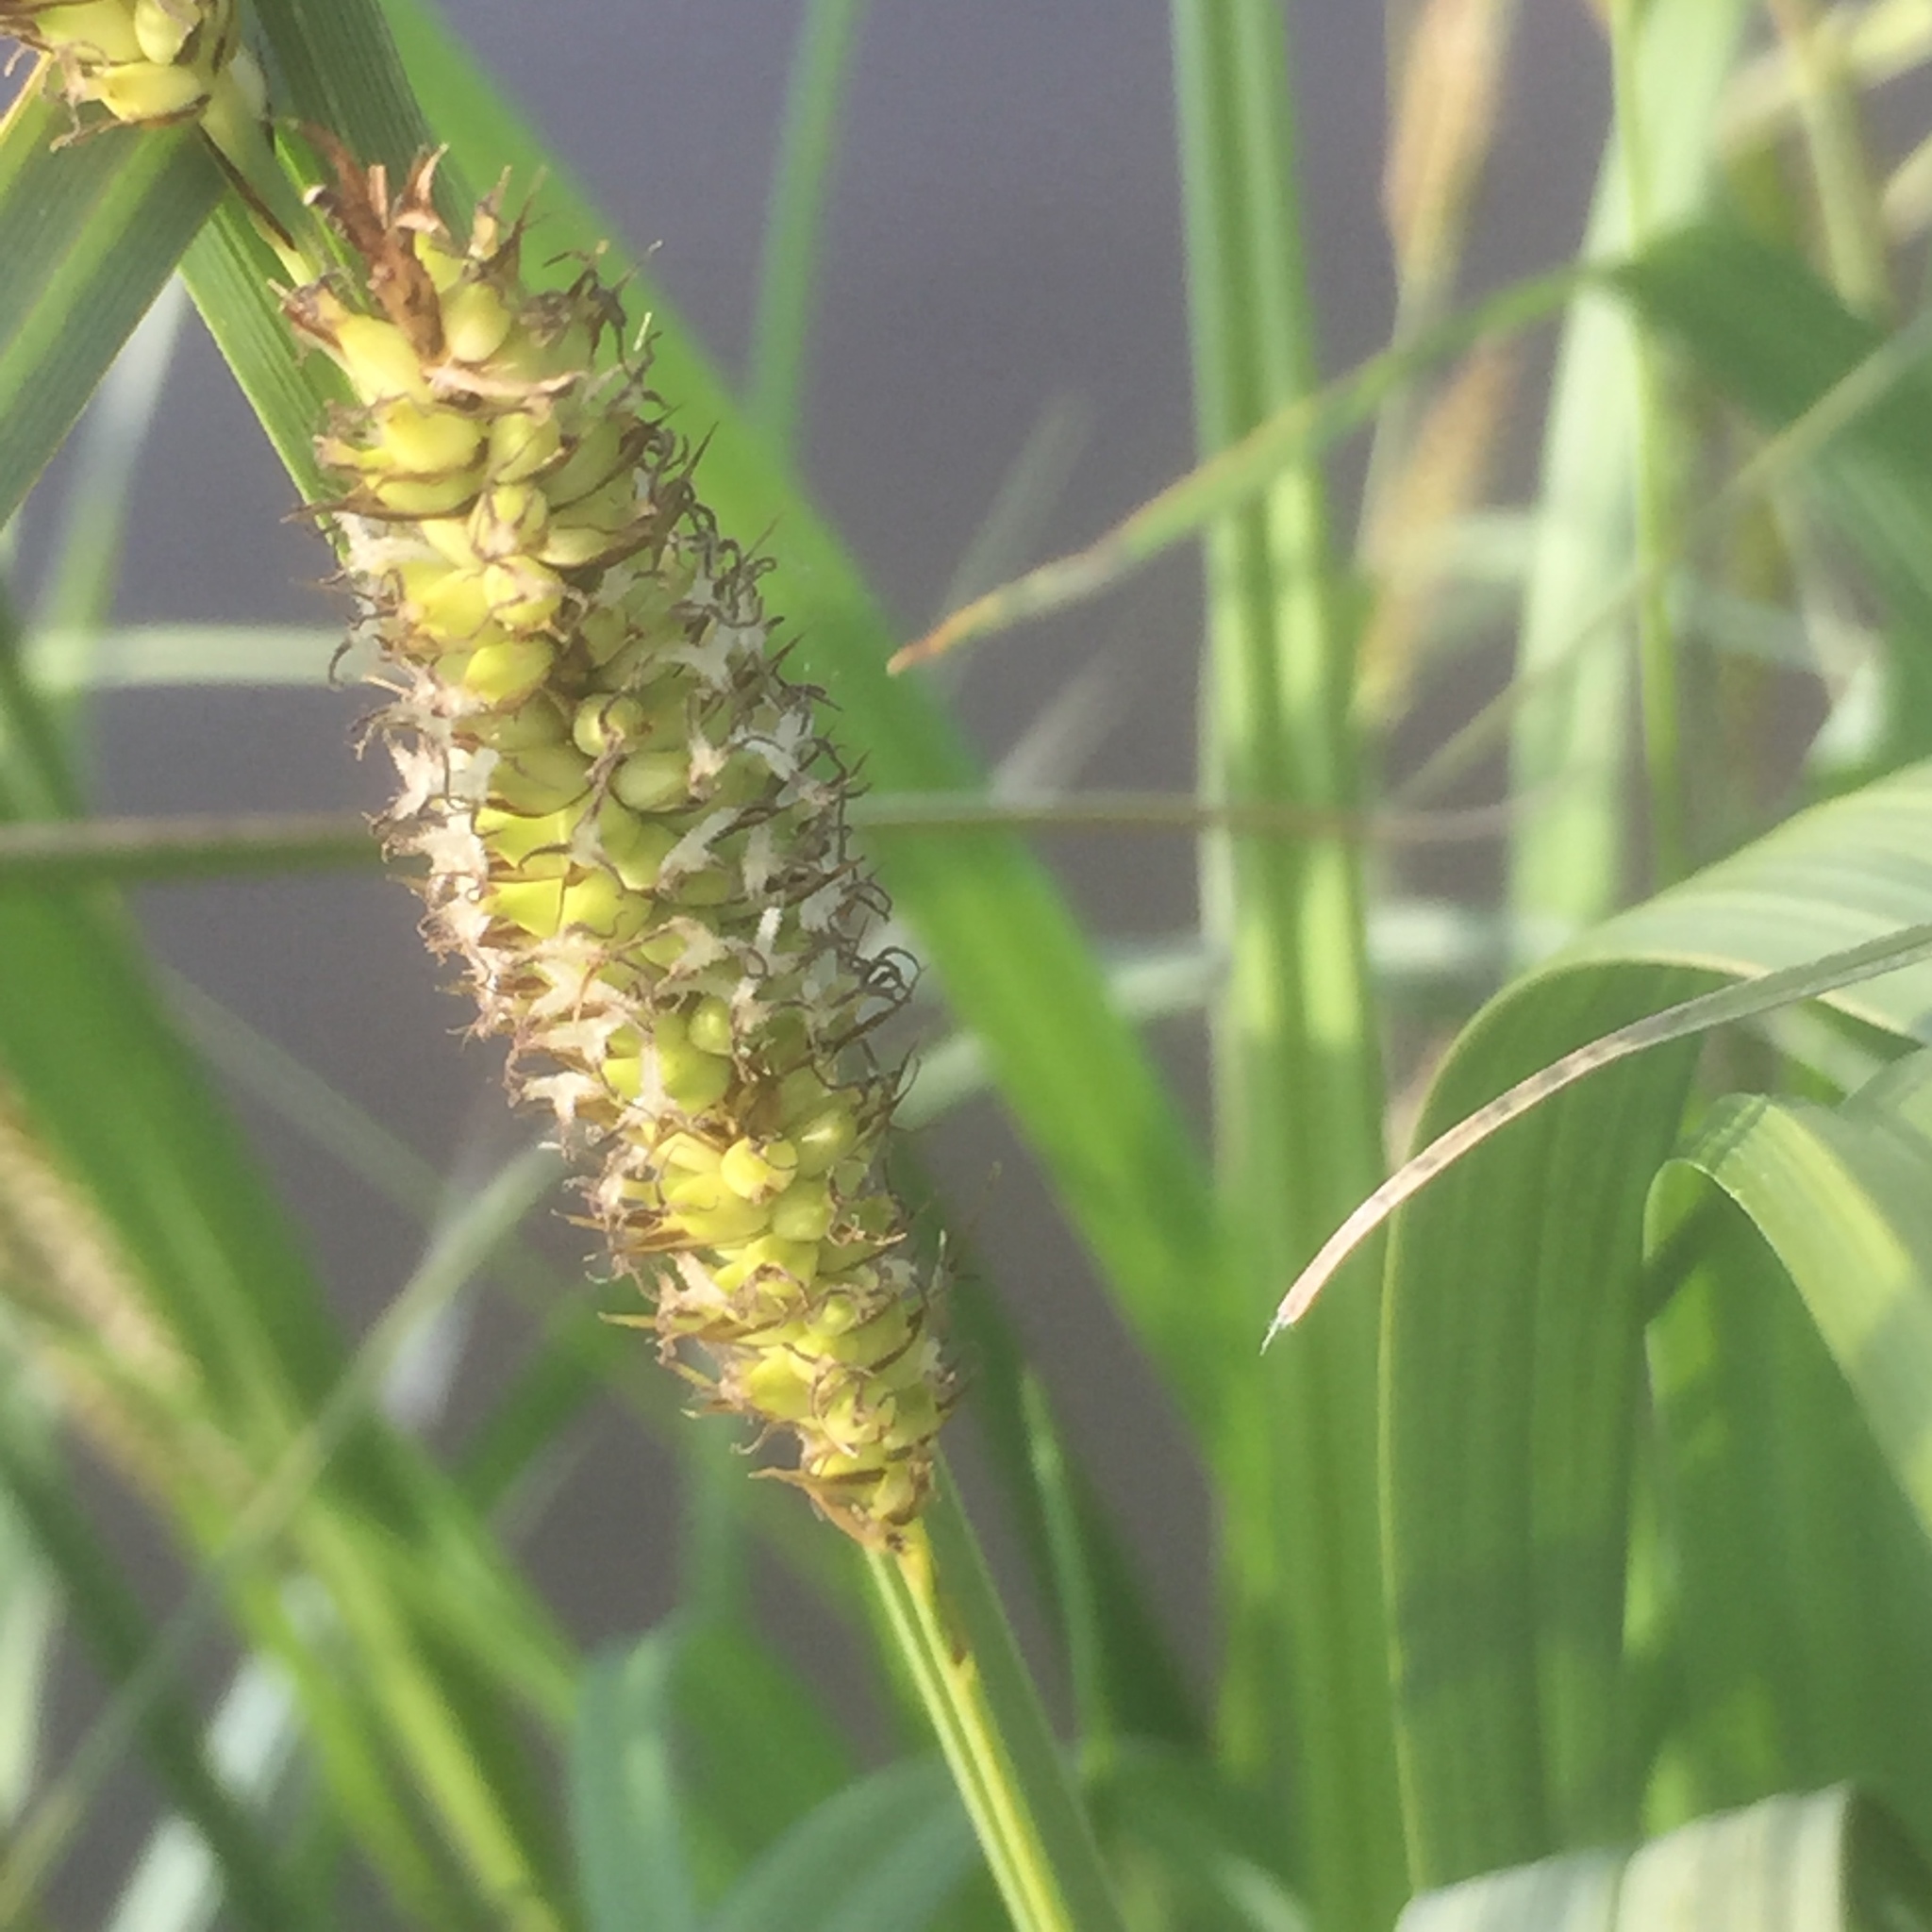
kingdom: Plantae
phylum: Tracheophyta
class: Liliopsida
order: Poales
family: Cyperaceae
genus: Carex
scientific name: Carex riparia
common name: Greater pond-sedge
